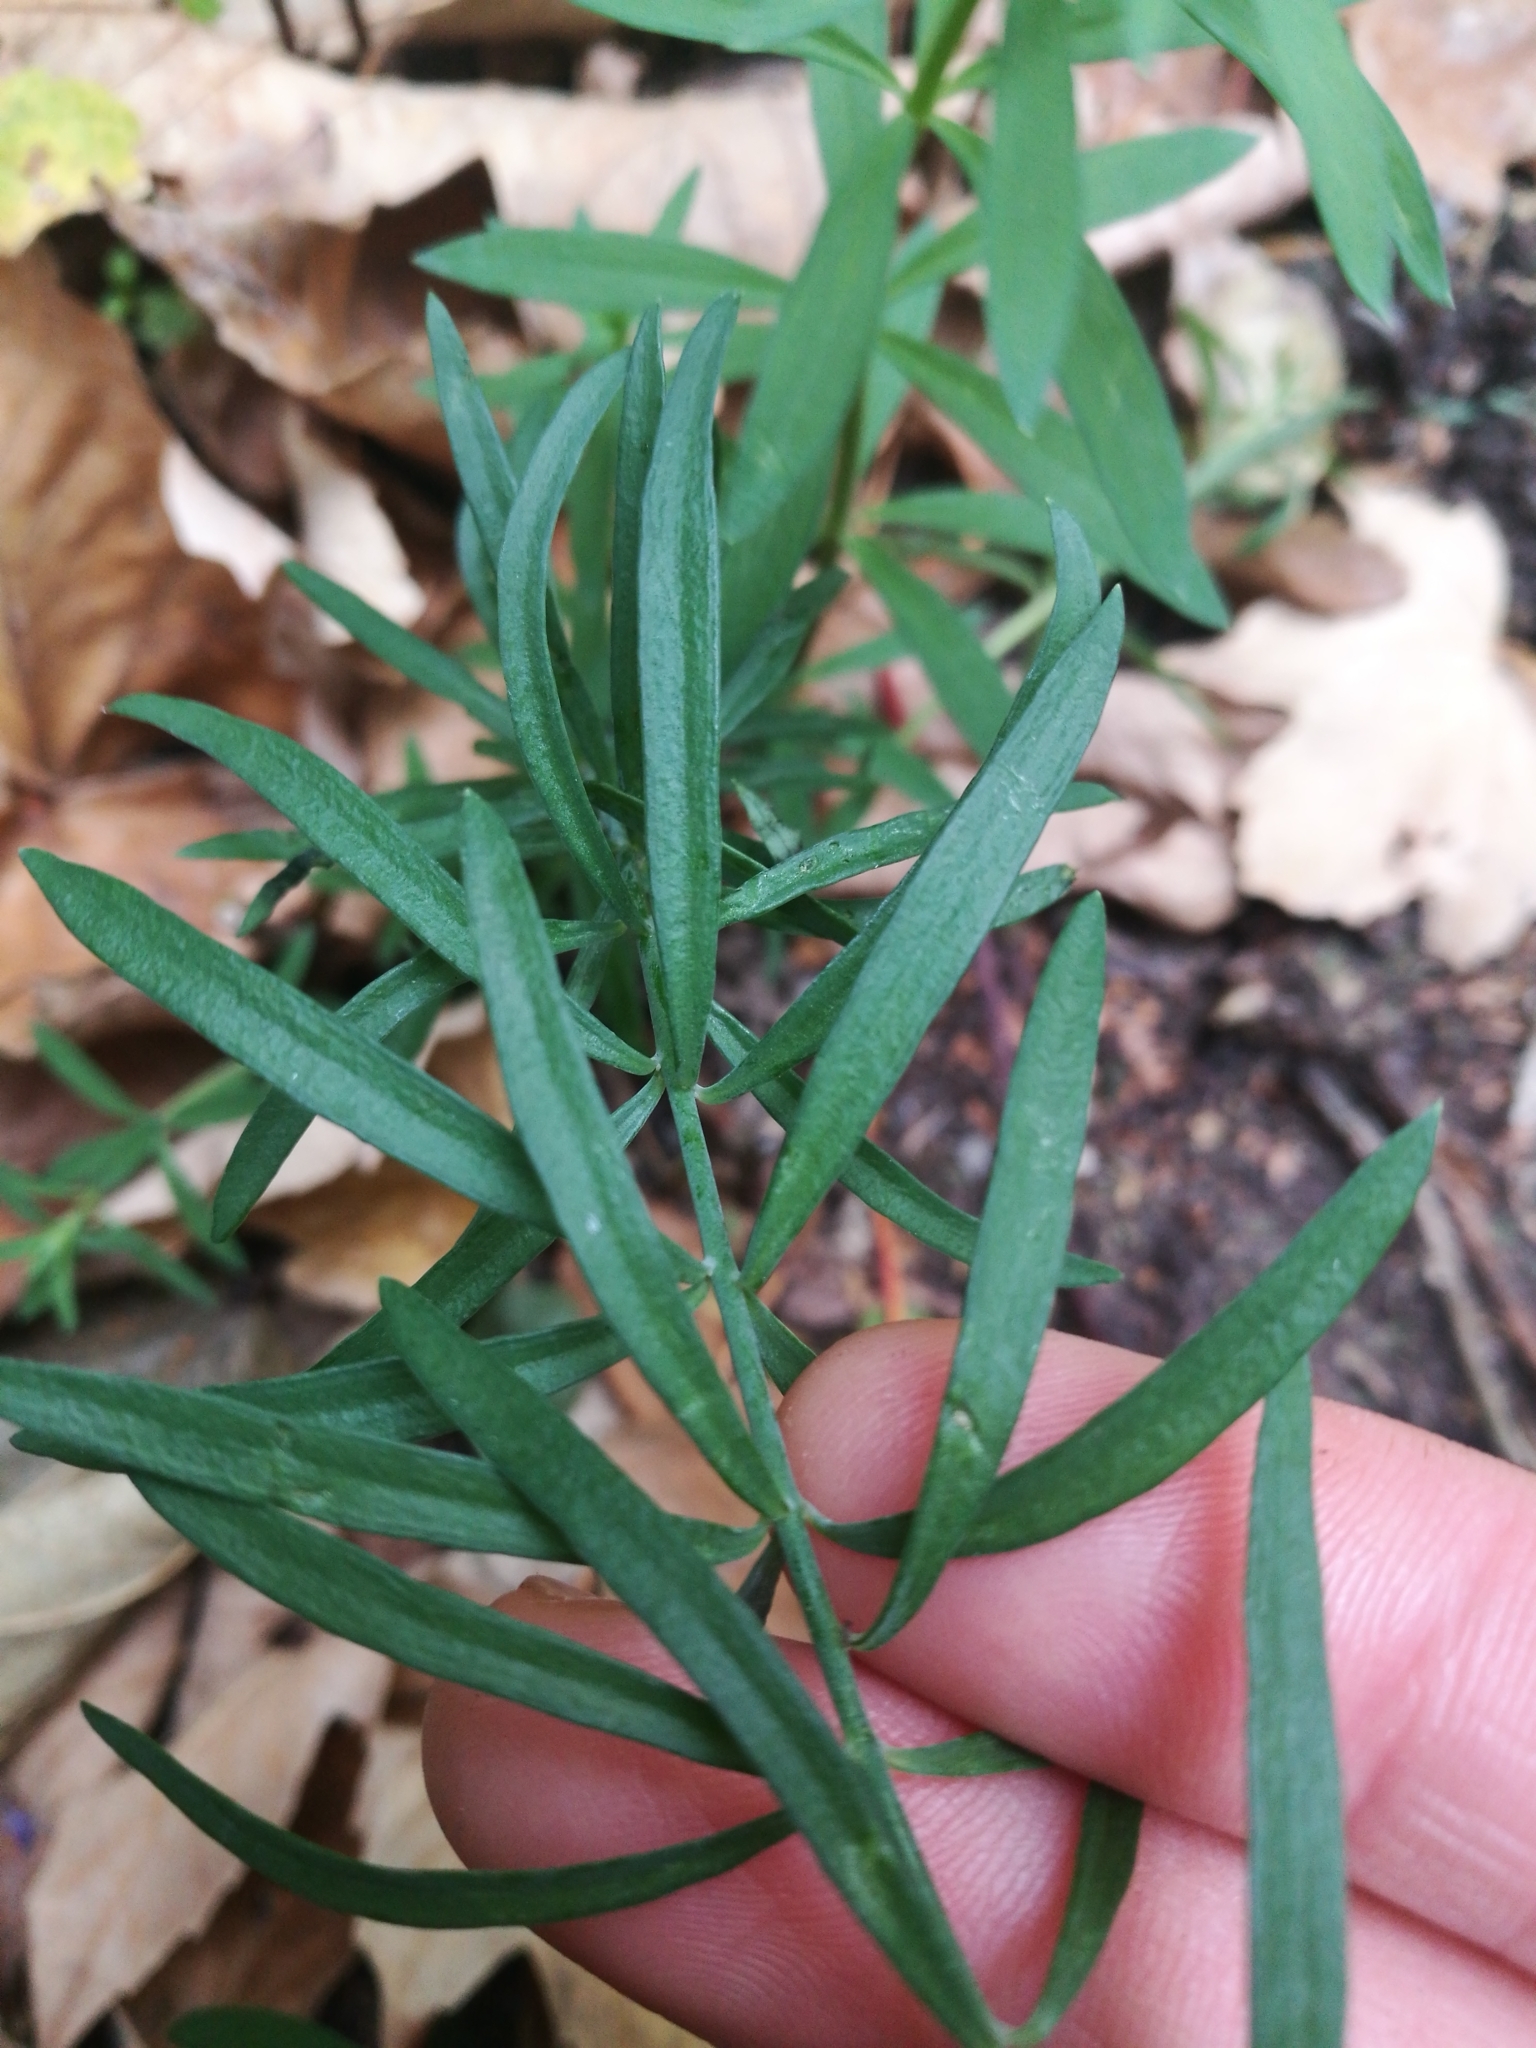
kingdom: Plantae
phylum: Tracheophyta
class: Magnoliopsida
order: Lamiales
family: Plantaginaceae
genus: Linaria
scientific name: Linaria purpurea
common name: Purple toadflax
